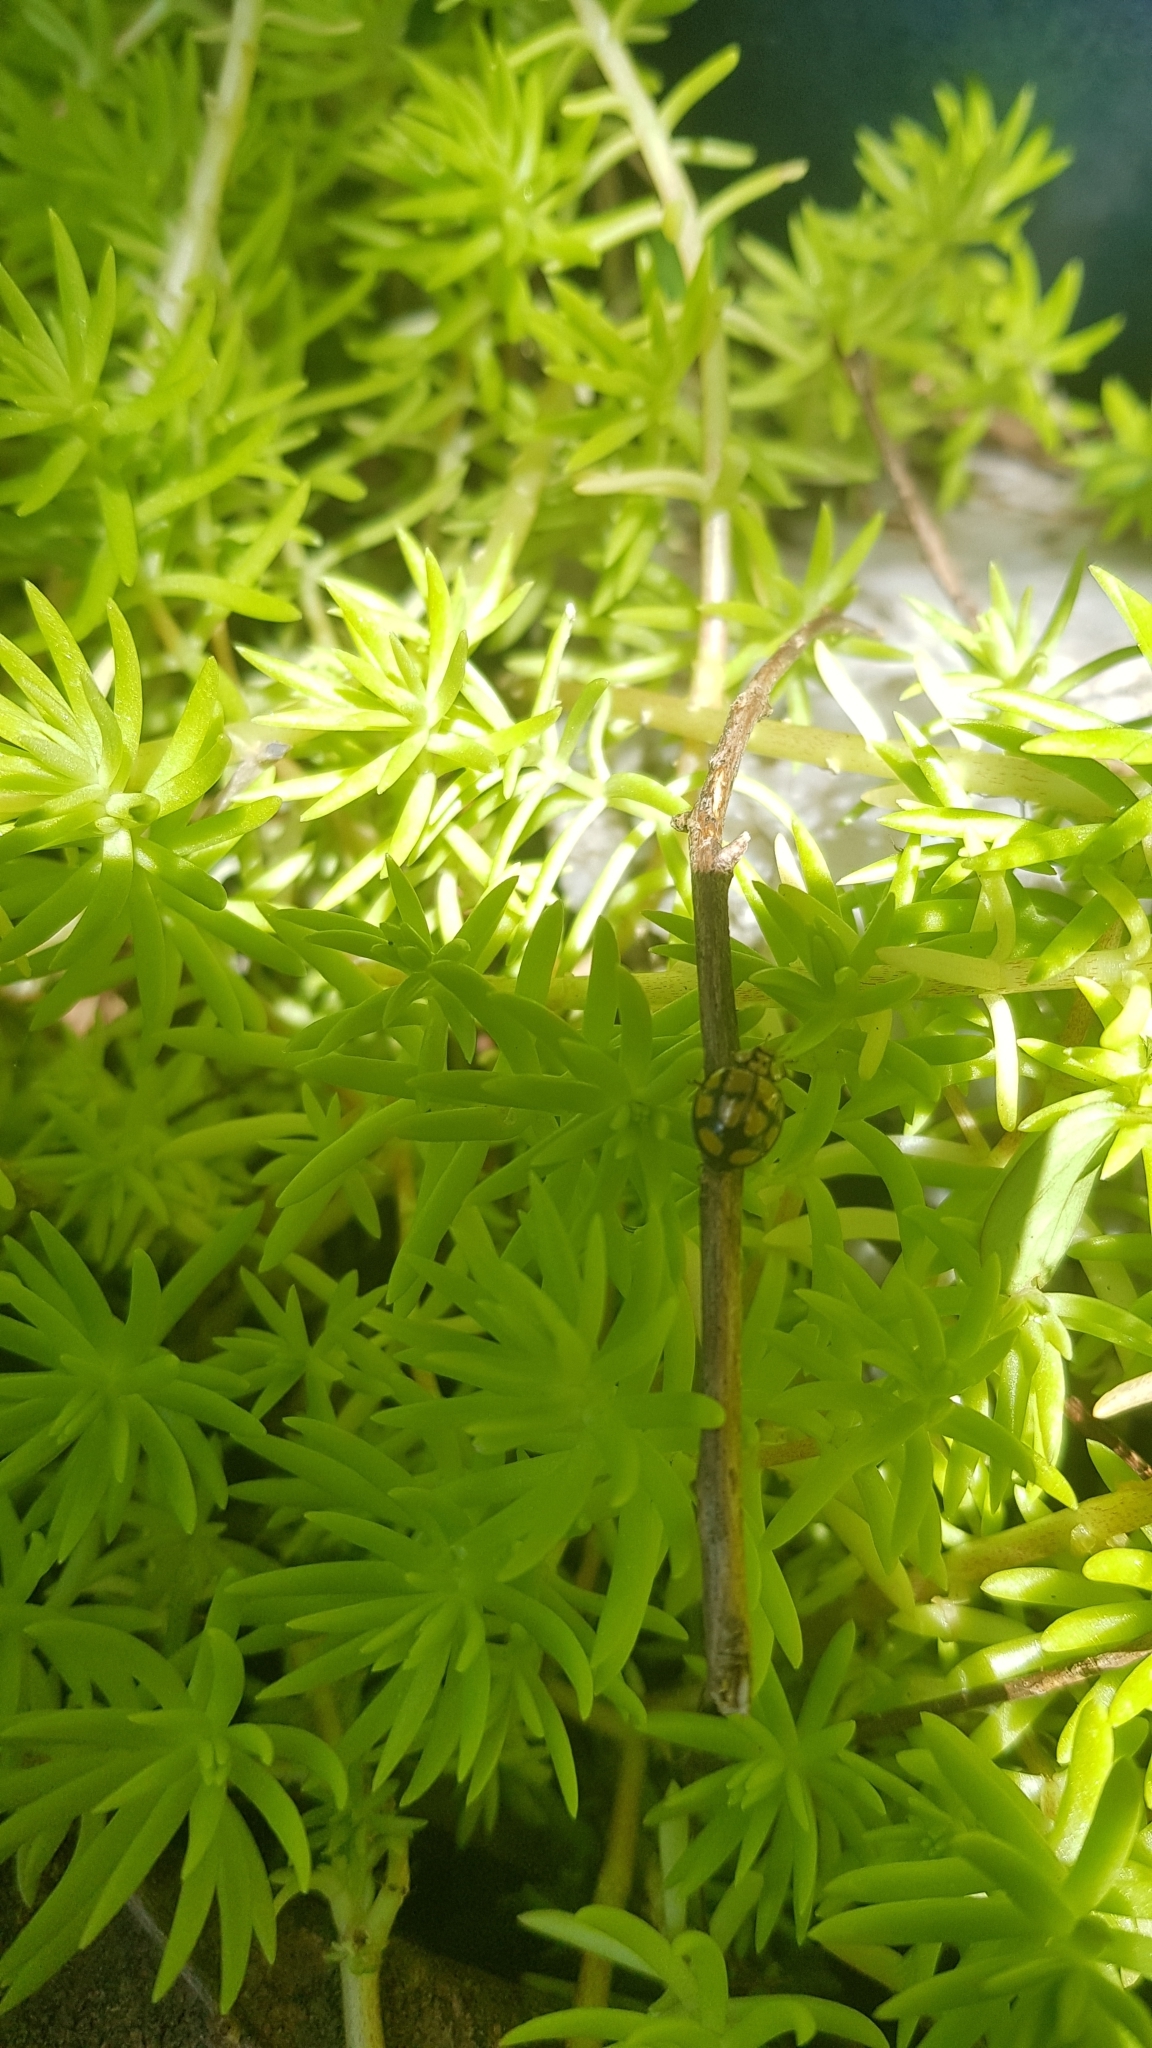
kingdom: Animalia
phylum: Arthropoda
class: Insecta
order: Coleoptera
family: Coccinellidae
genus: Harmonia
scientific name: Harmonia
